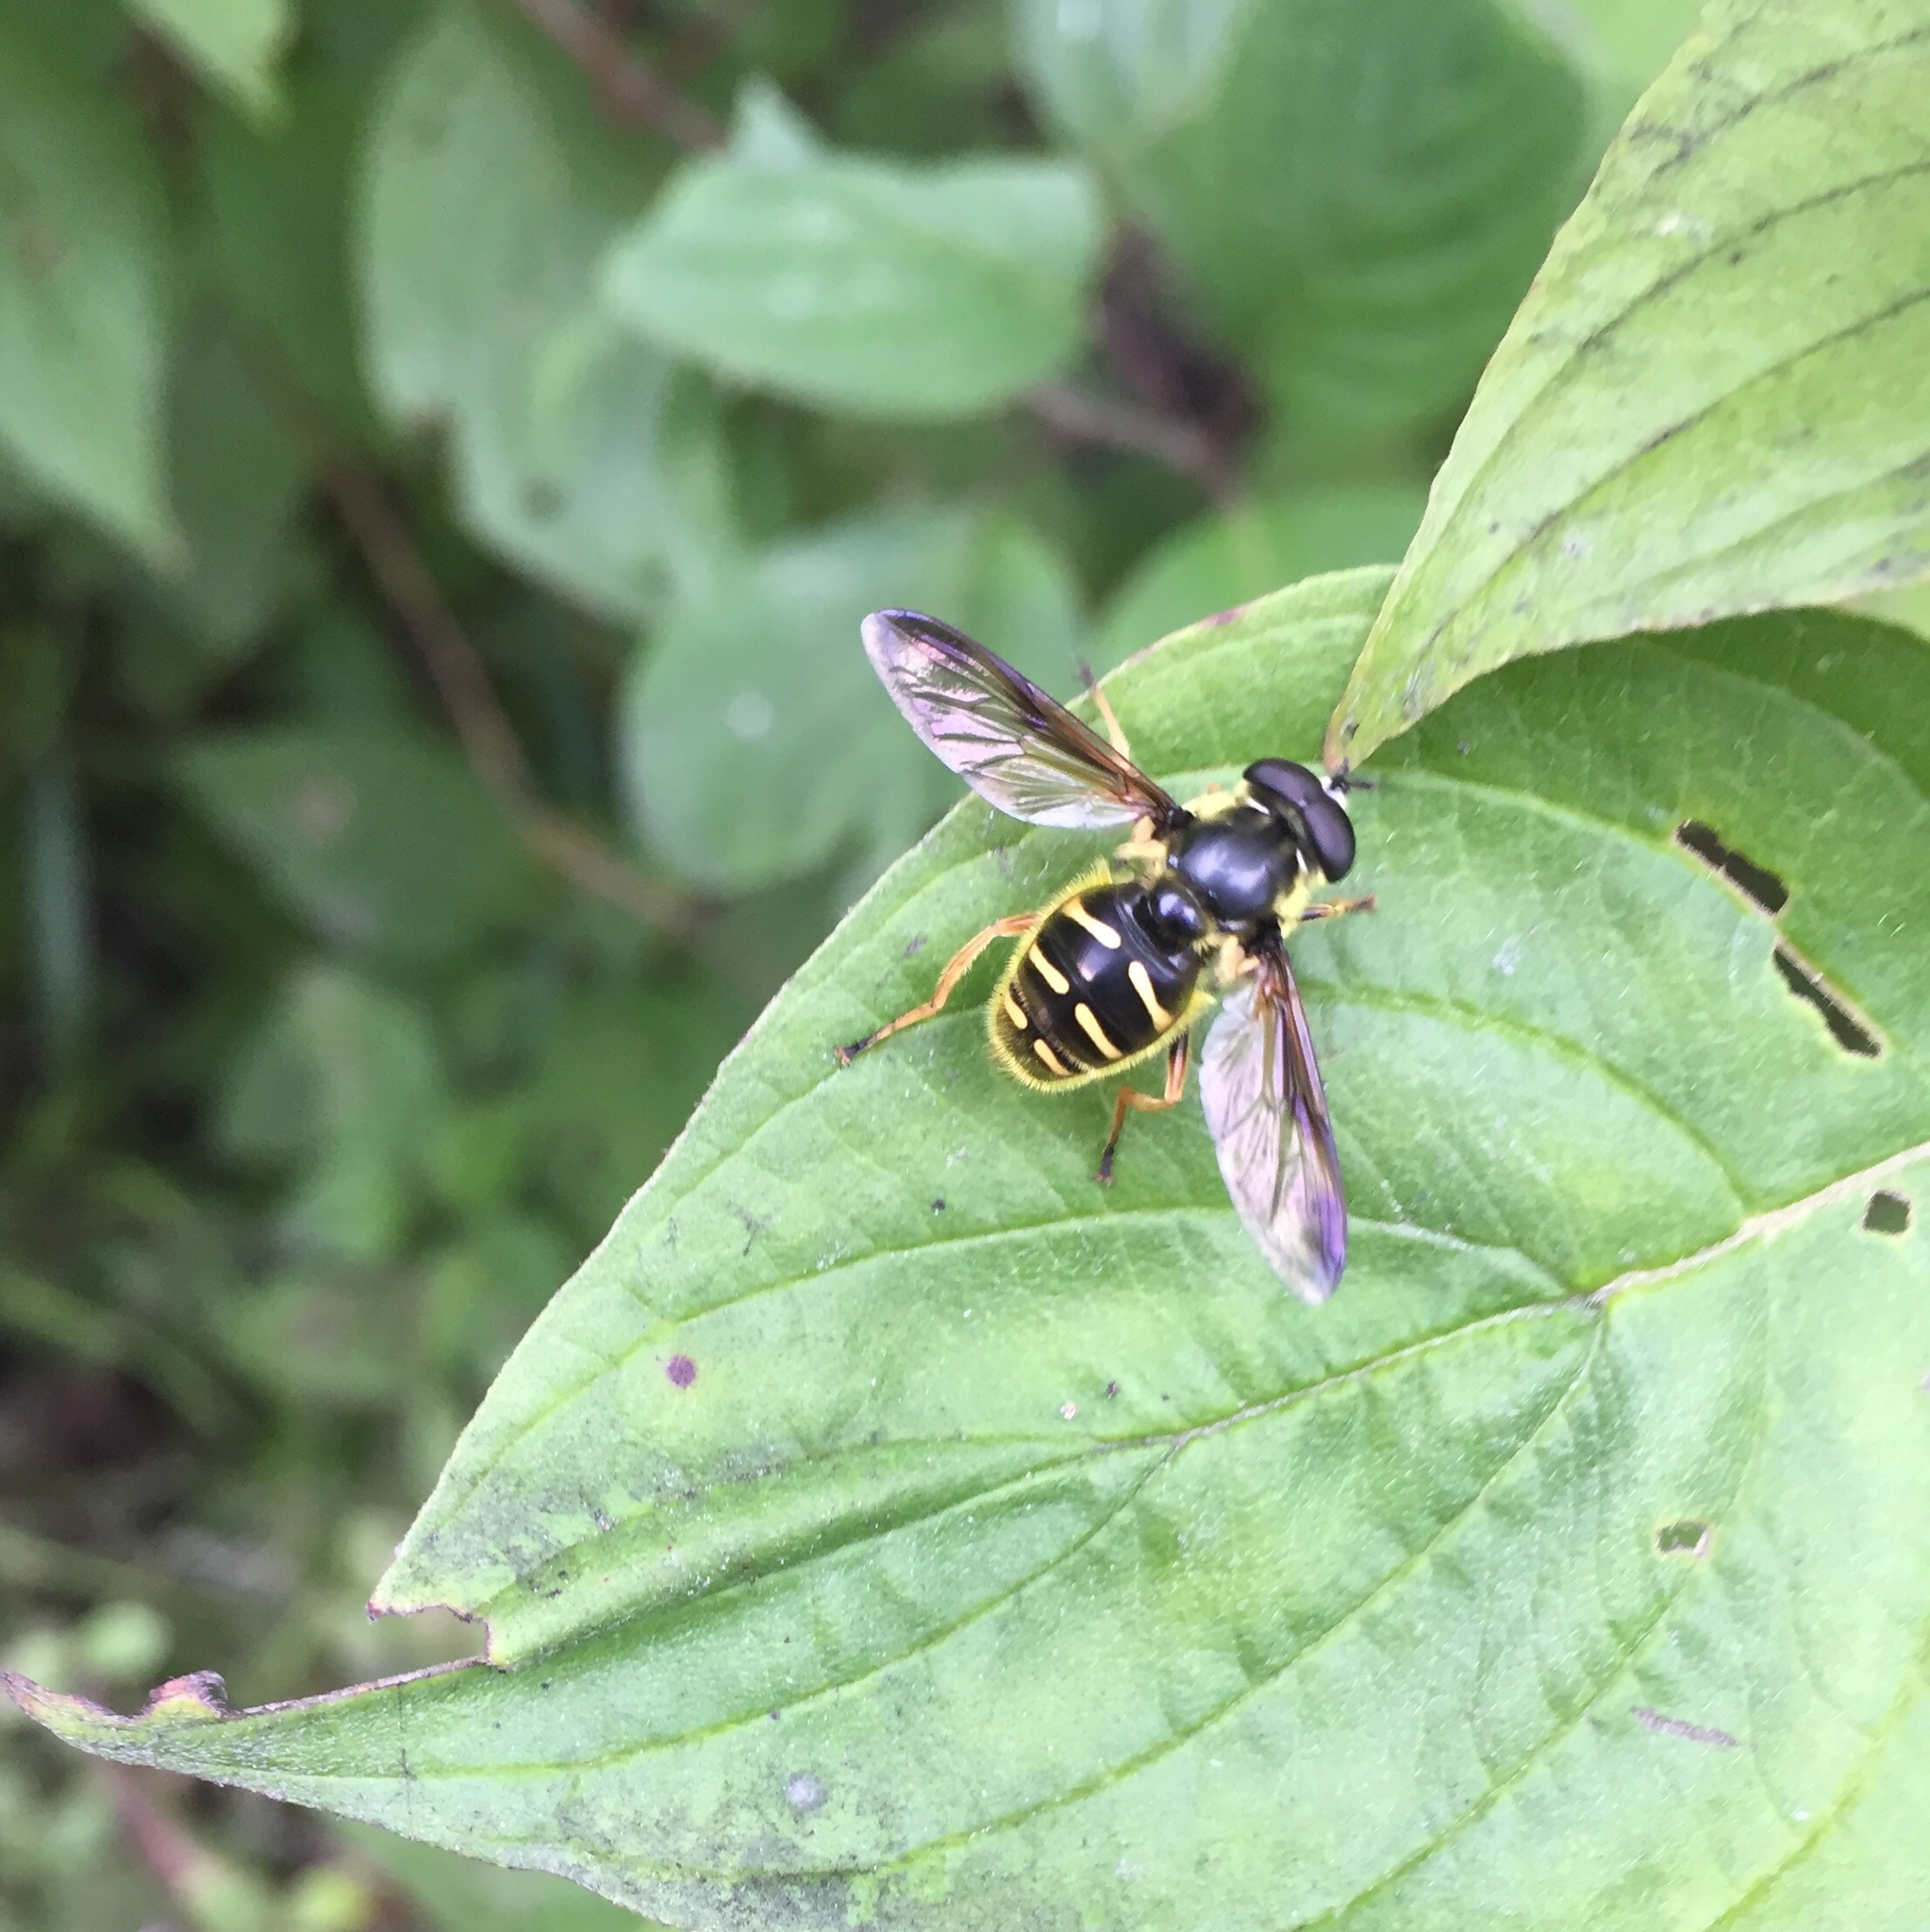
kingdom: Animalia
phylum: Arthropoda
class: Insecta
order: Diptera
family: Syrphidae
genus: Sericomyia
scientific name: Sericomyia chrysotoxoides
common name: Oblique-banded pond fly
